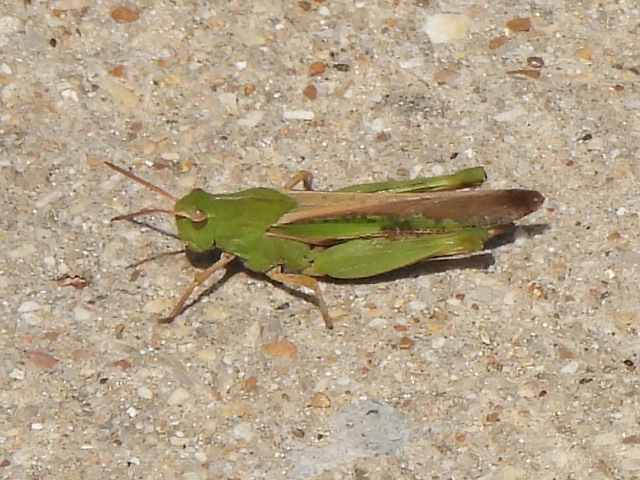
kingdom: Animalia
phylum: Arthropoda
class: Insecta
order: Orthoptera
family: Acrididae
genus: Chortophaga
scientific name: Chortophaga viridifasciata
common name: Green-striped grasshopper
